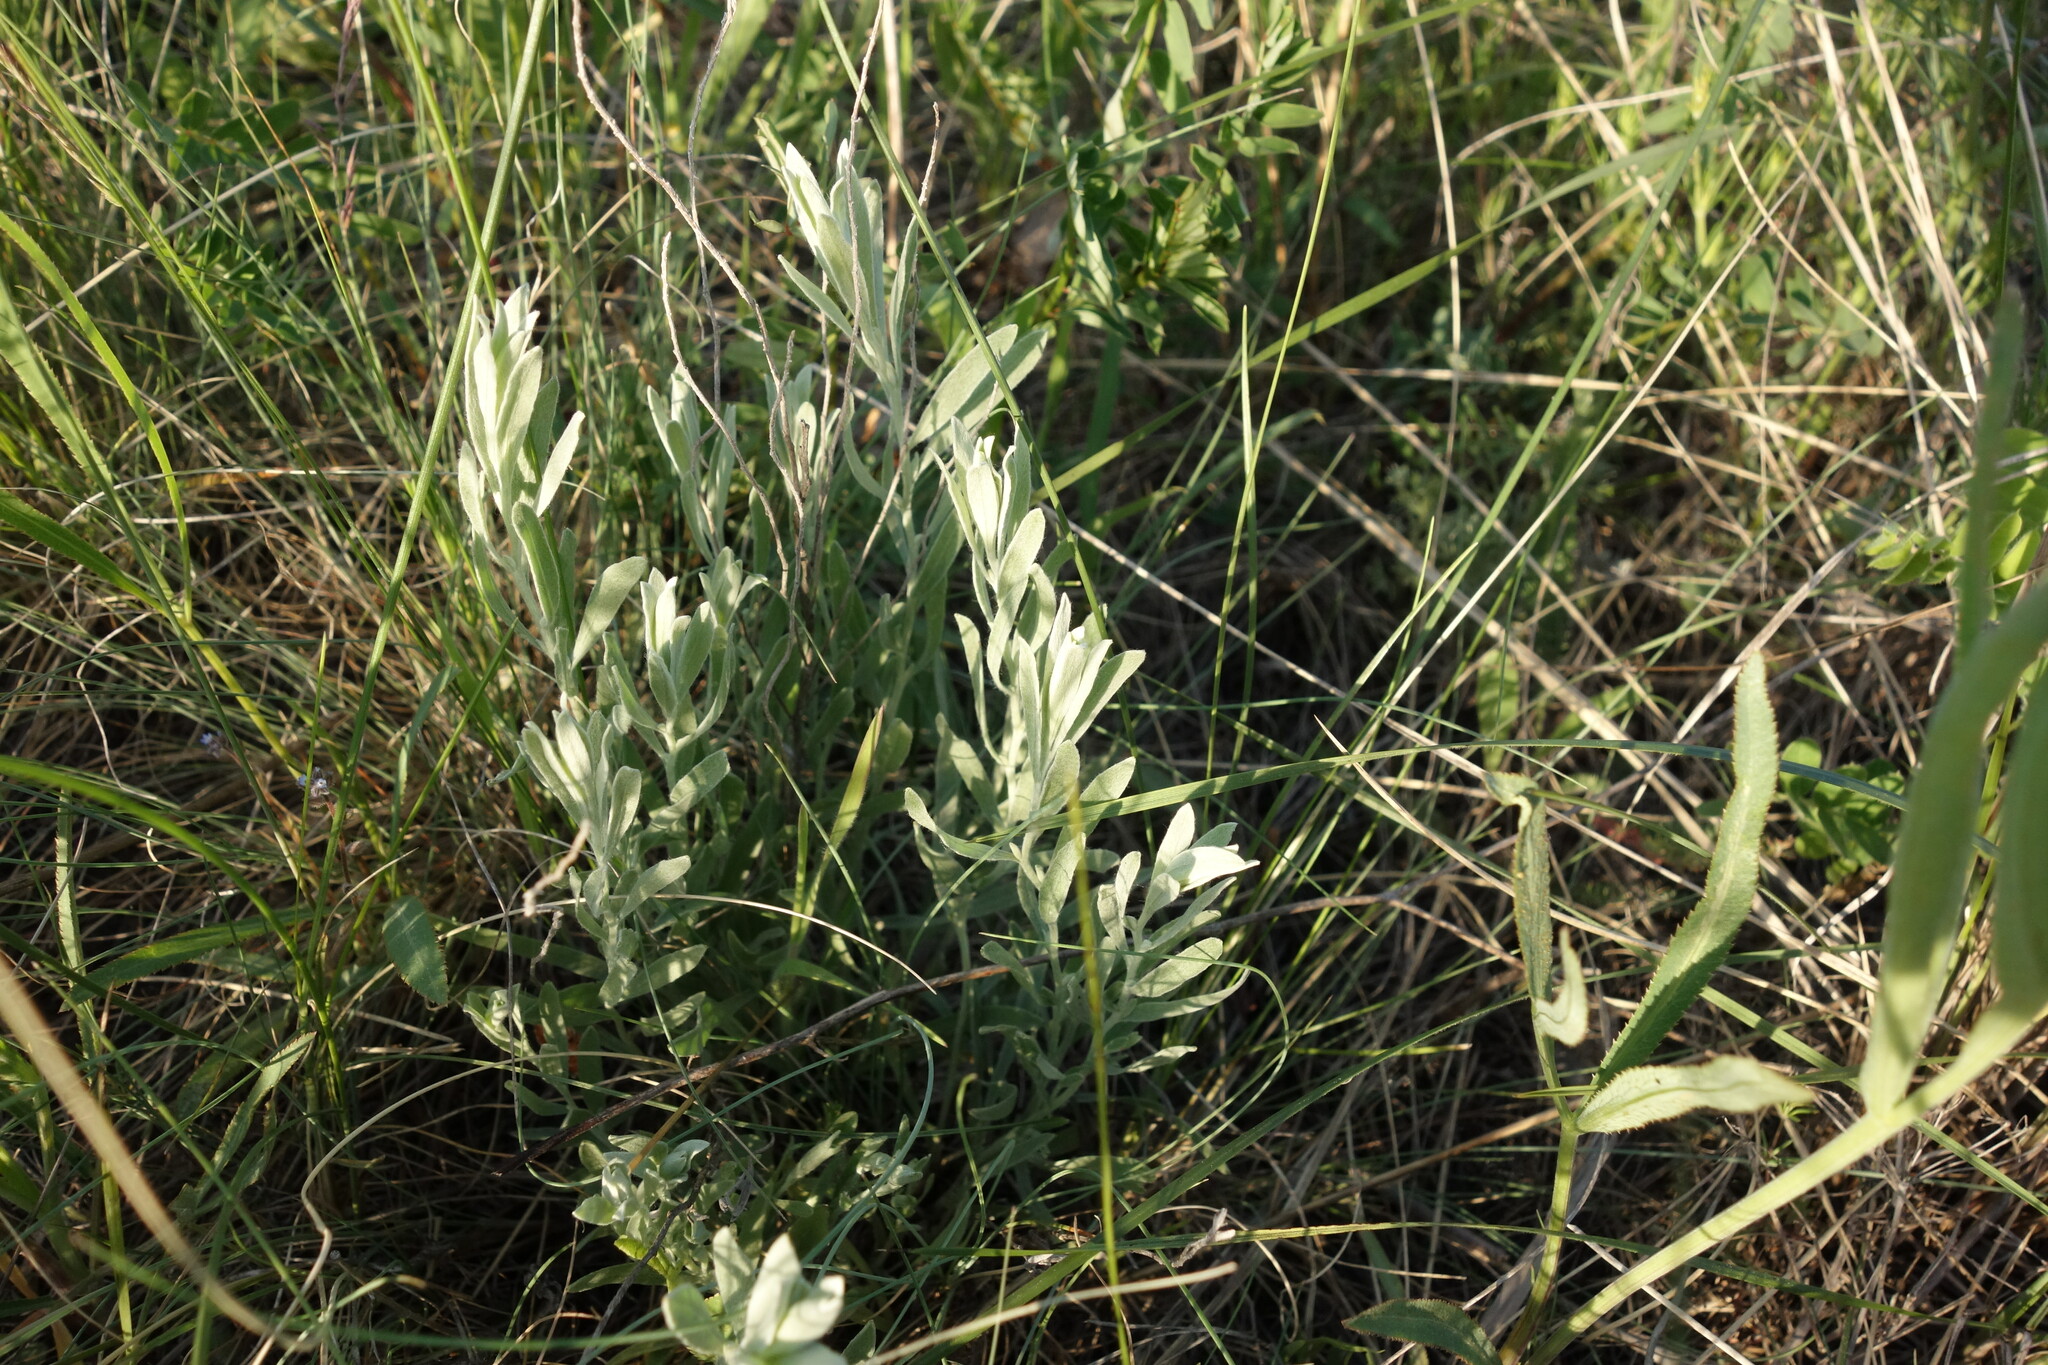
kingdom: Plantae
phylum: Tracheophyta
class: Magnoliopsida
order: Asterales
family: Asteraceae
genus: Galatella
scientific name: Galatella villosa
